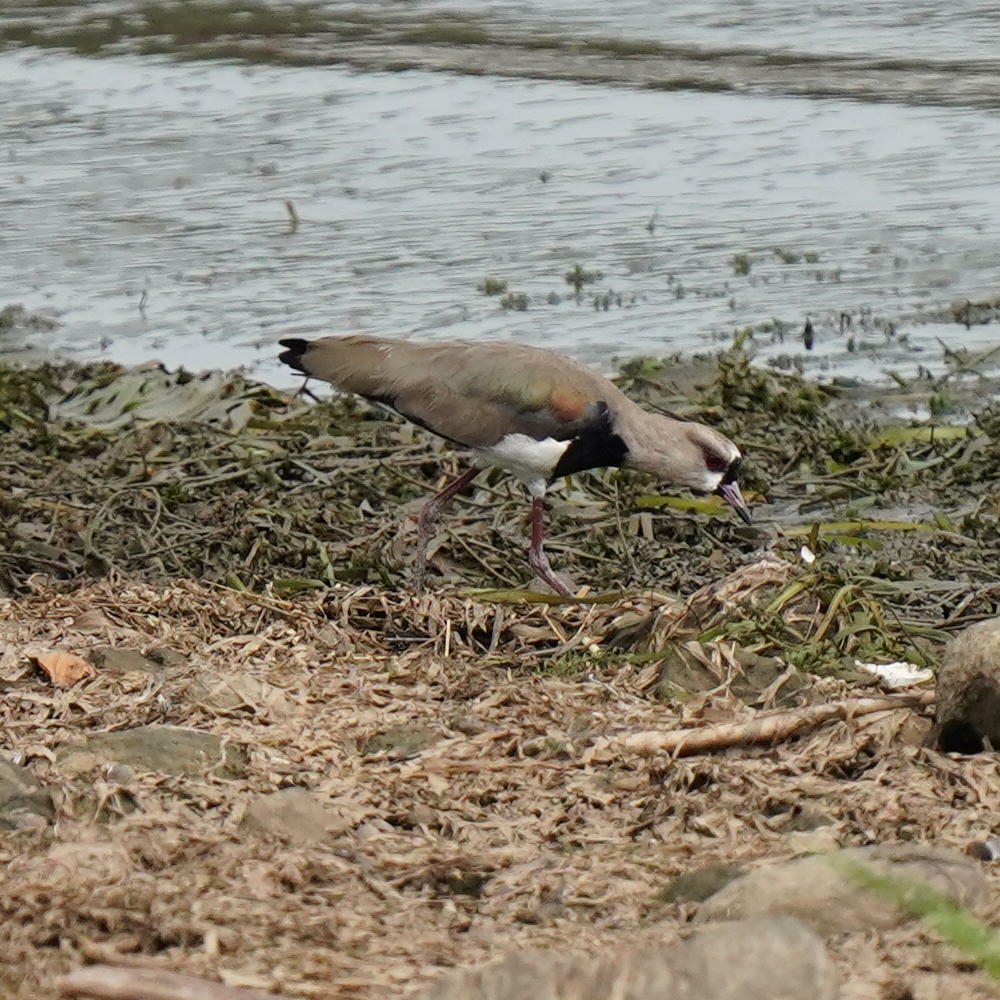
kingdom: Animalia
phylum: Chordata
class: Aves
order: Charadriiformes
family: Charadriidae
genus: Vanellus
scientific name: Vanellus chilensis
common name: Southern lapwing
